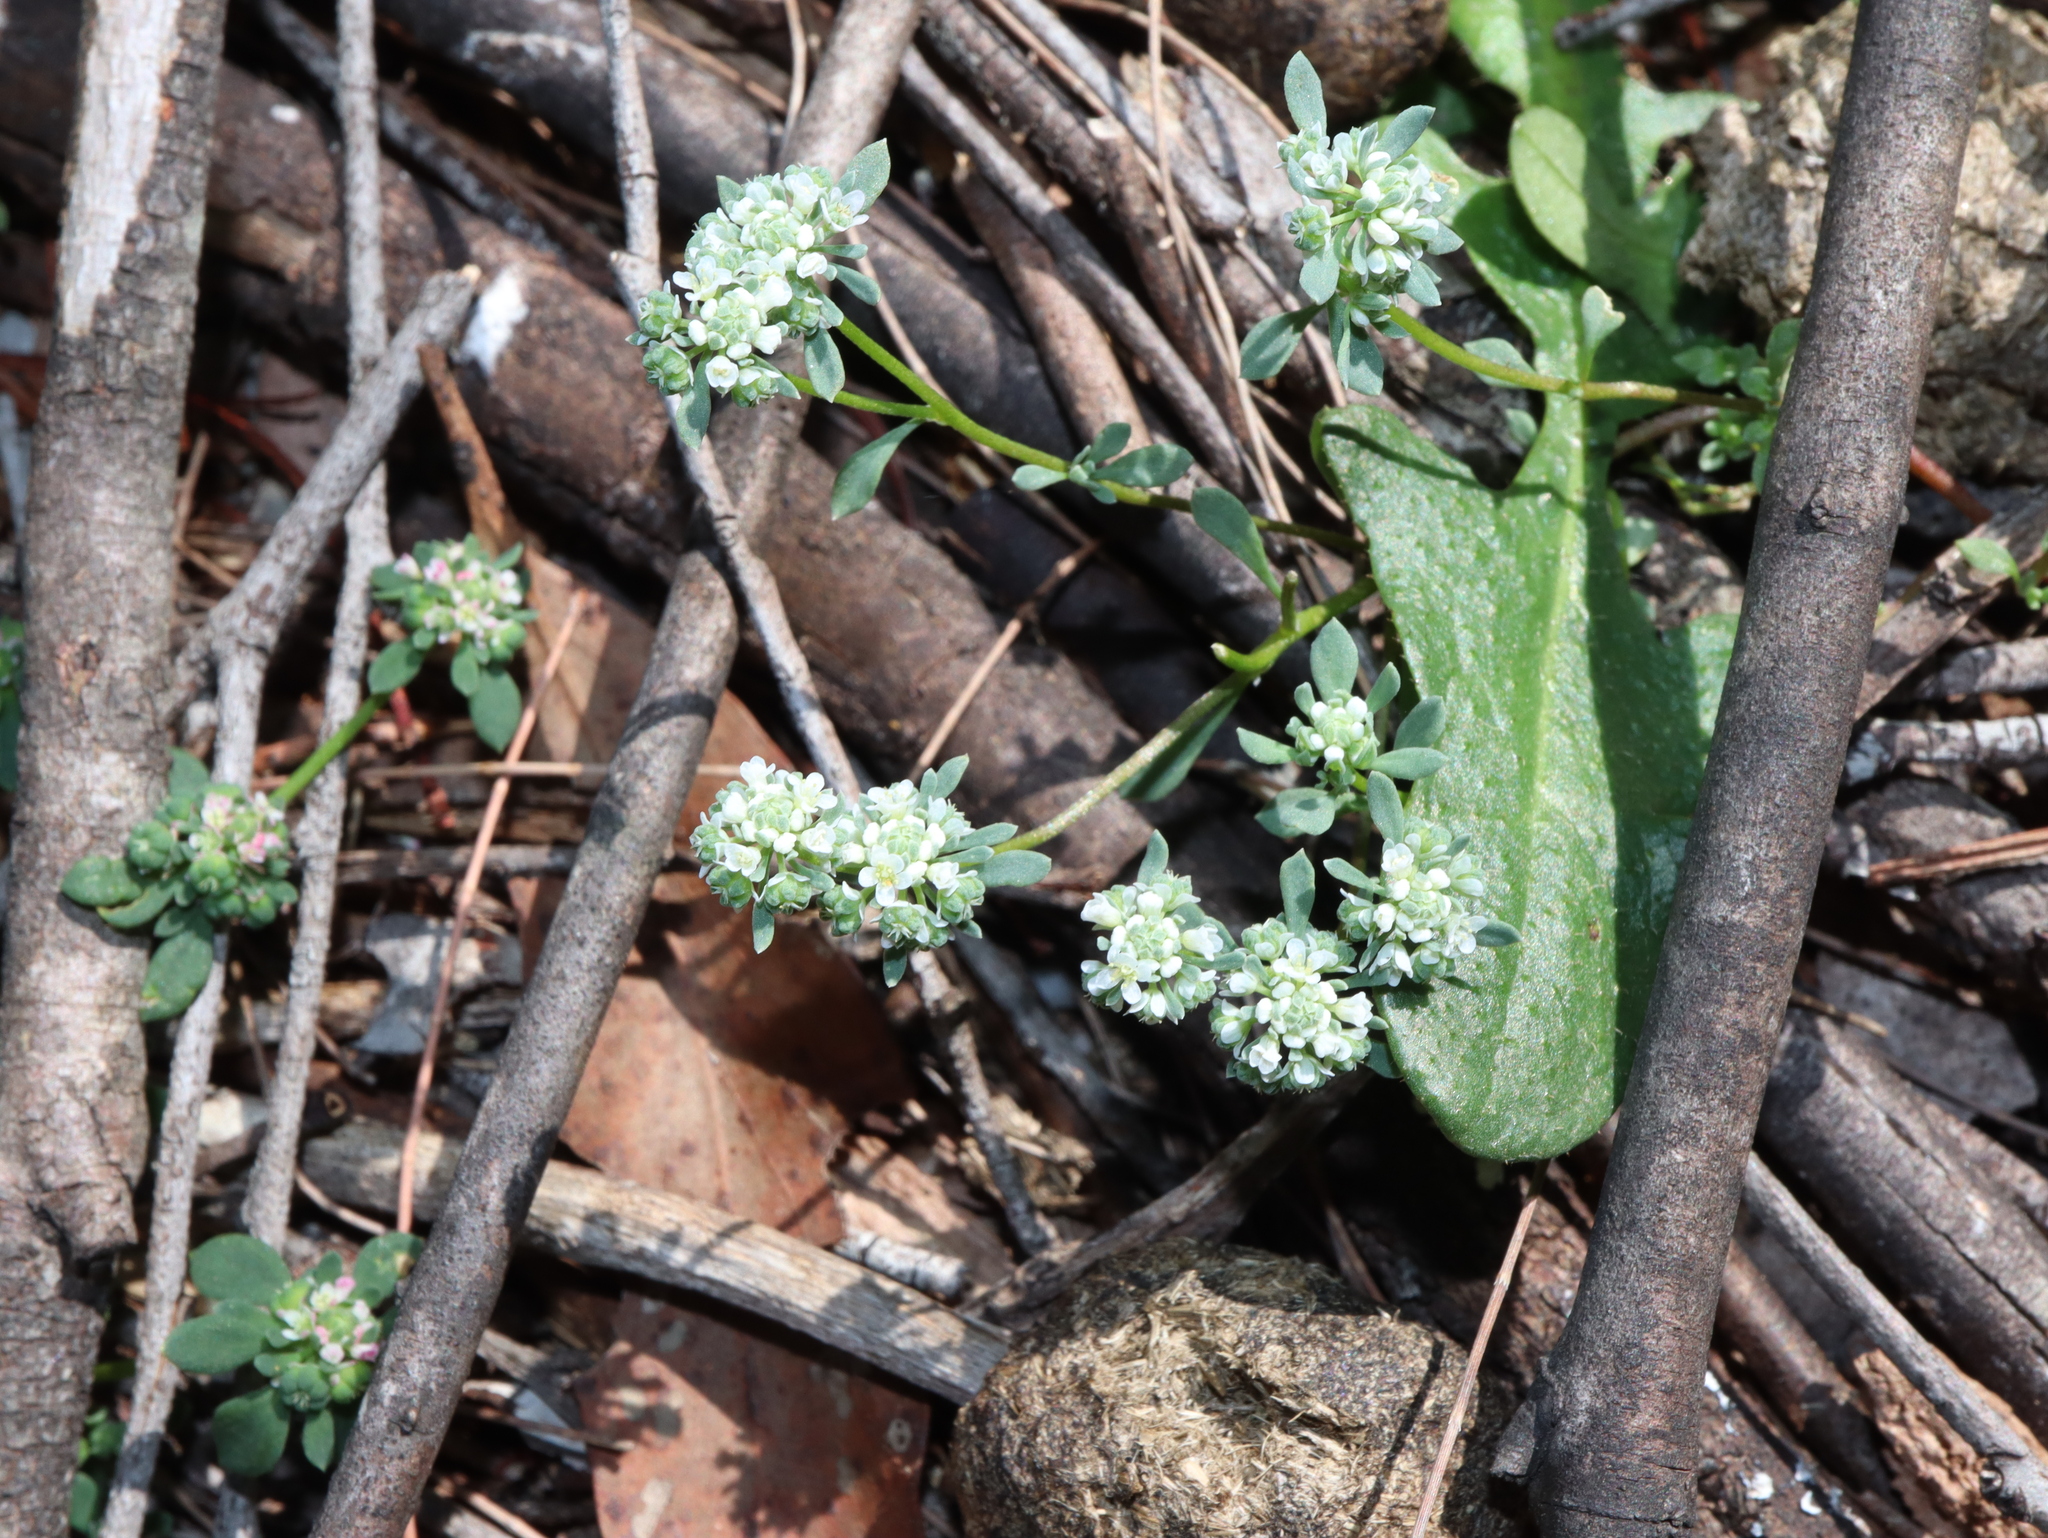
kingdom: Plantae
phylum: Tracheophyta
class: Magnoliopsida
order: Malpighiales
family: Phyllanthaceae
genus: Poranthera
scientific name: Poranthera microphylla
